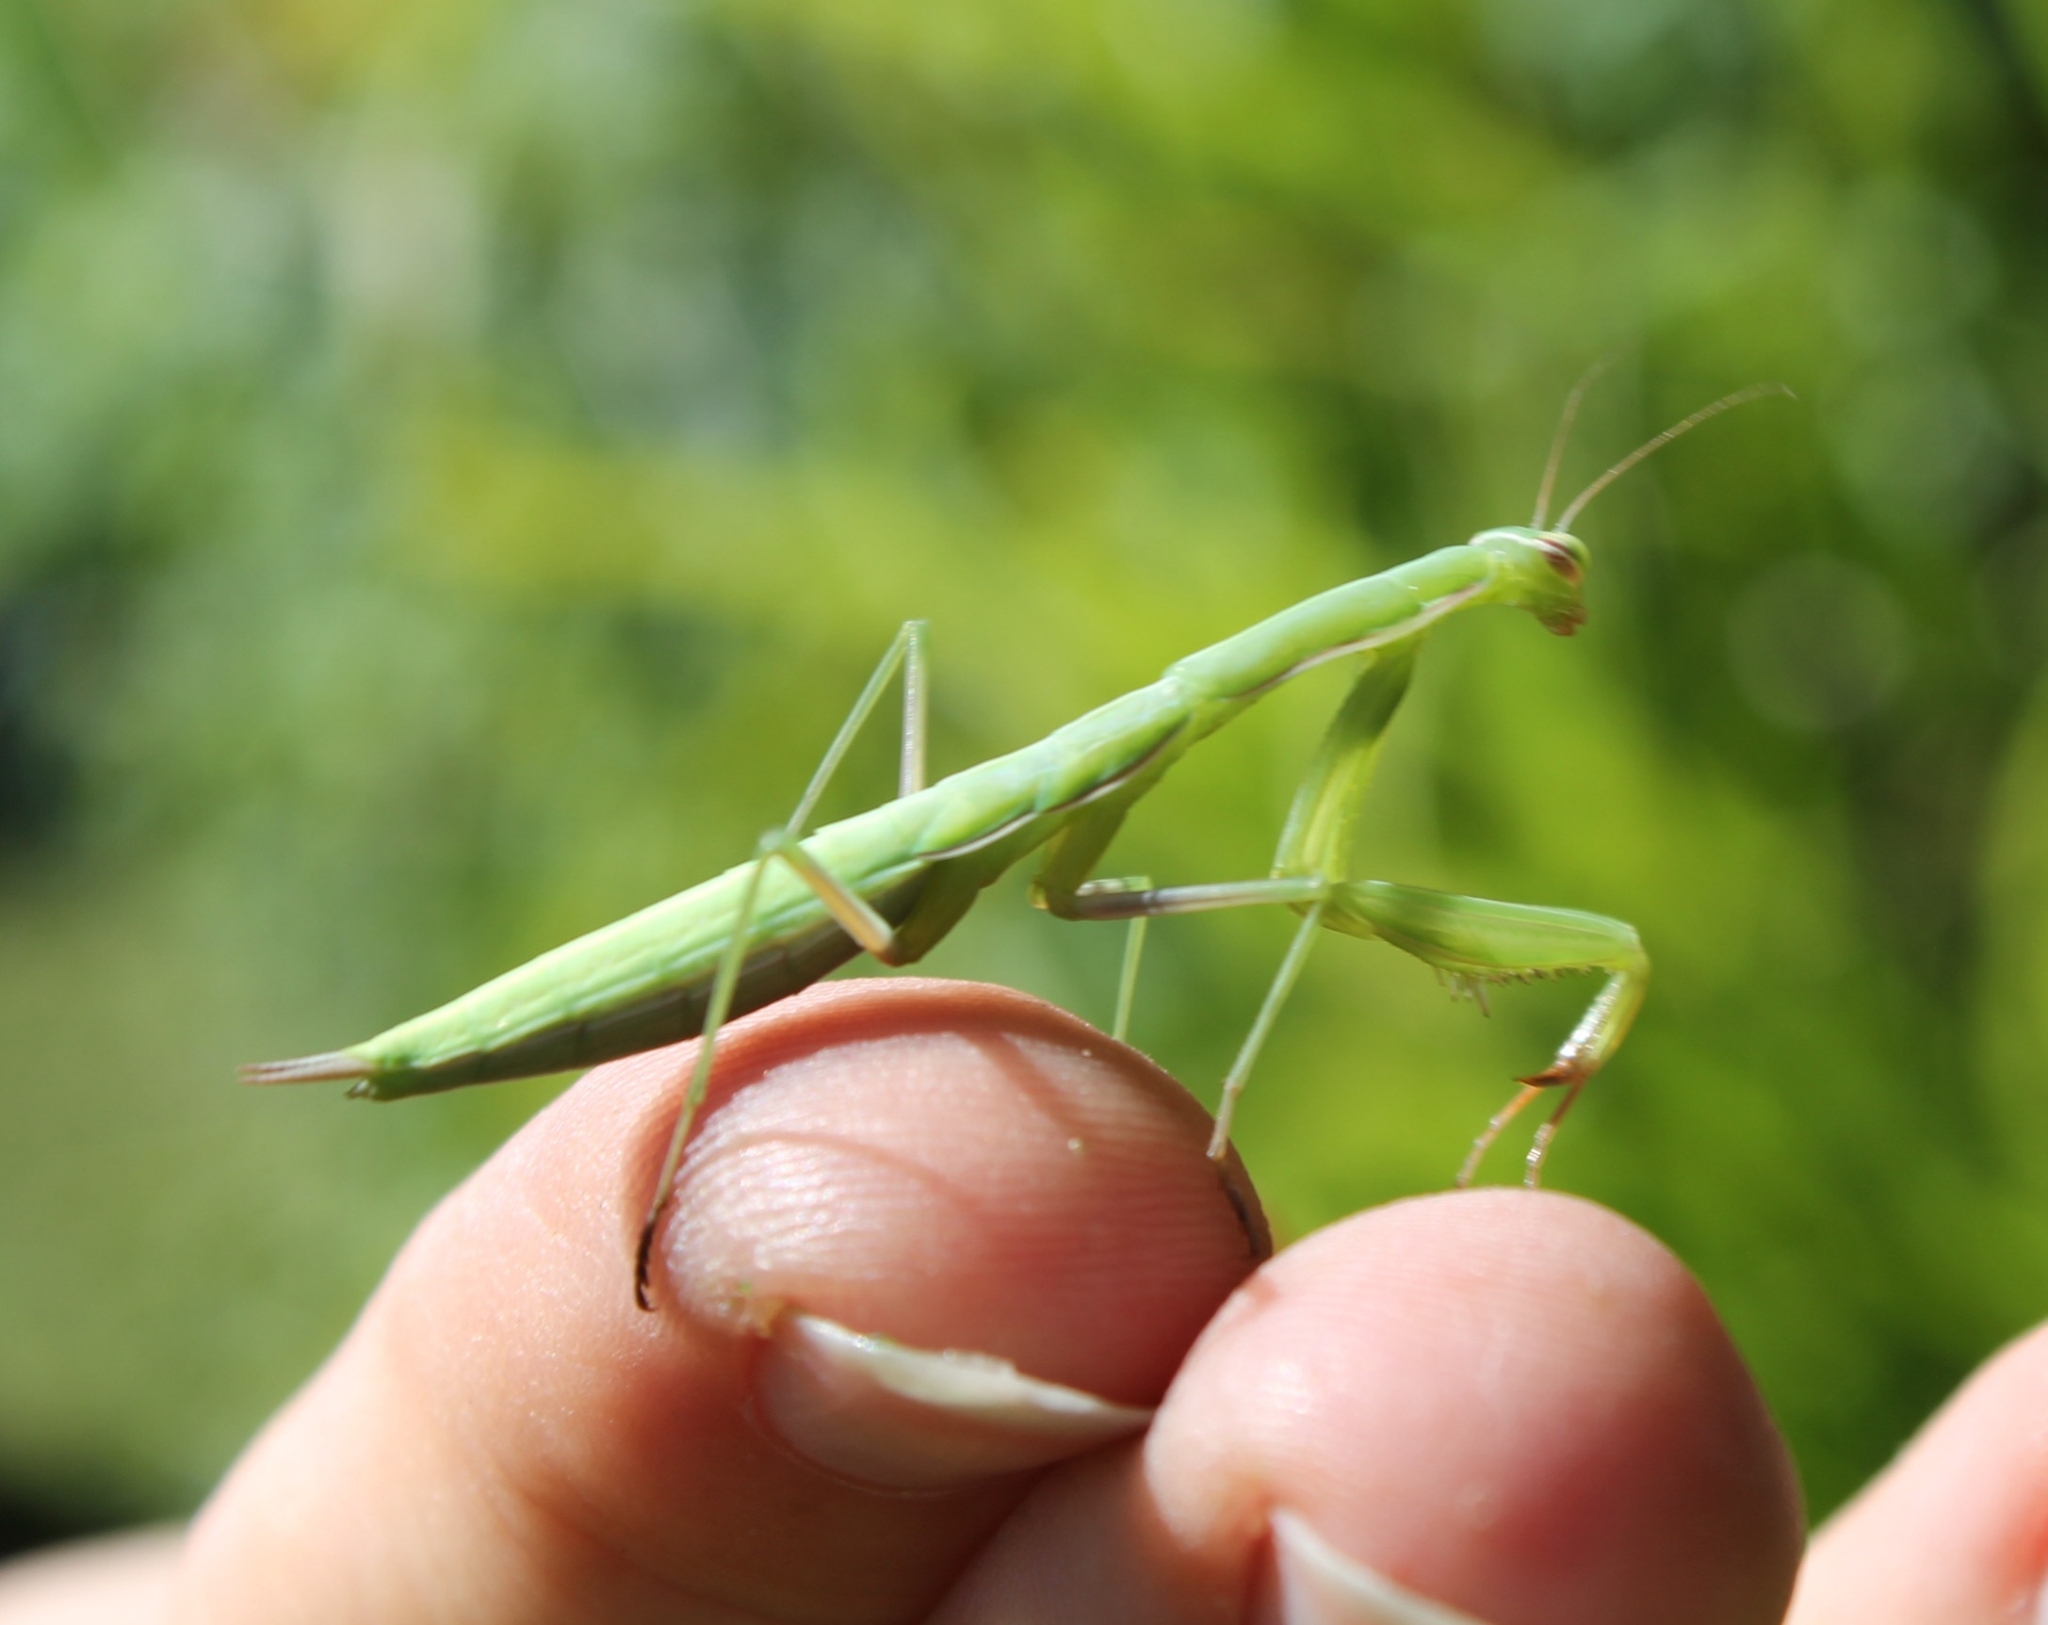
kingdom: Animalia
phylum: Arthropoda
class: Insecta
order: Mantodea
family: Mantidae
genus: Mantis
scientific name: Mantis religiosa
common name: Praying mantis
